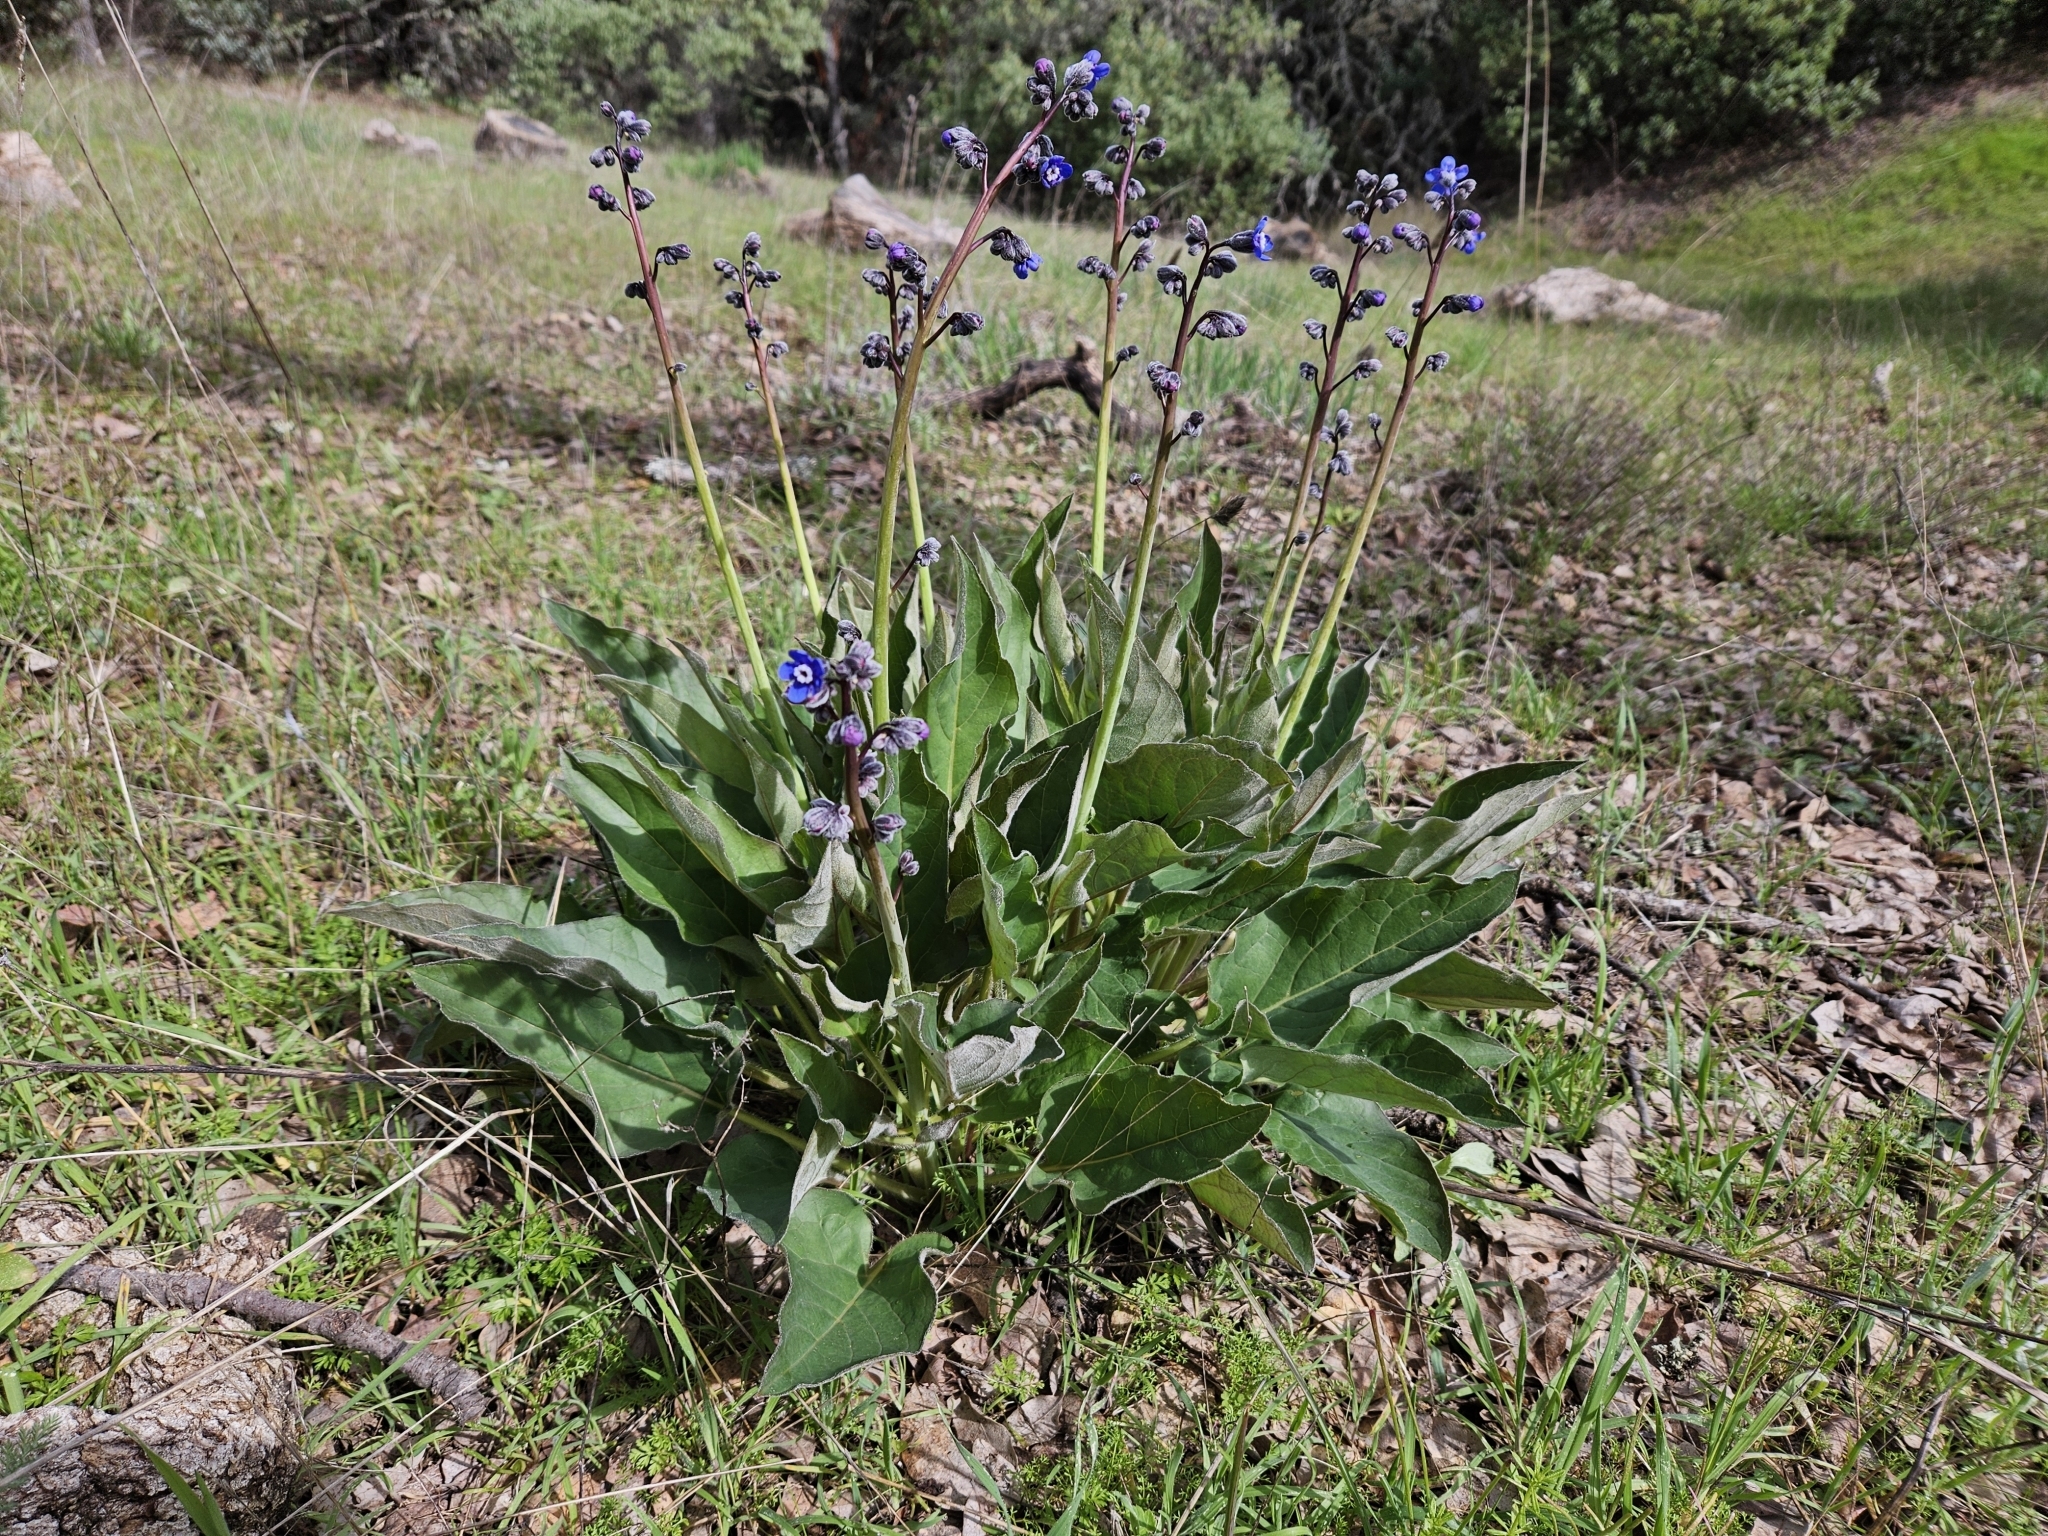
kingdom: Plantae
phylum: Tracheophyta
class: Magnoliopsida
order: Boraginales
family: Boraginaceae
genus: Adelinia
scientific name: Adelinia grande
